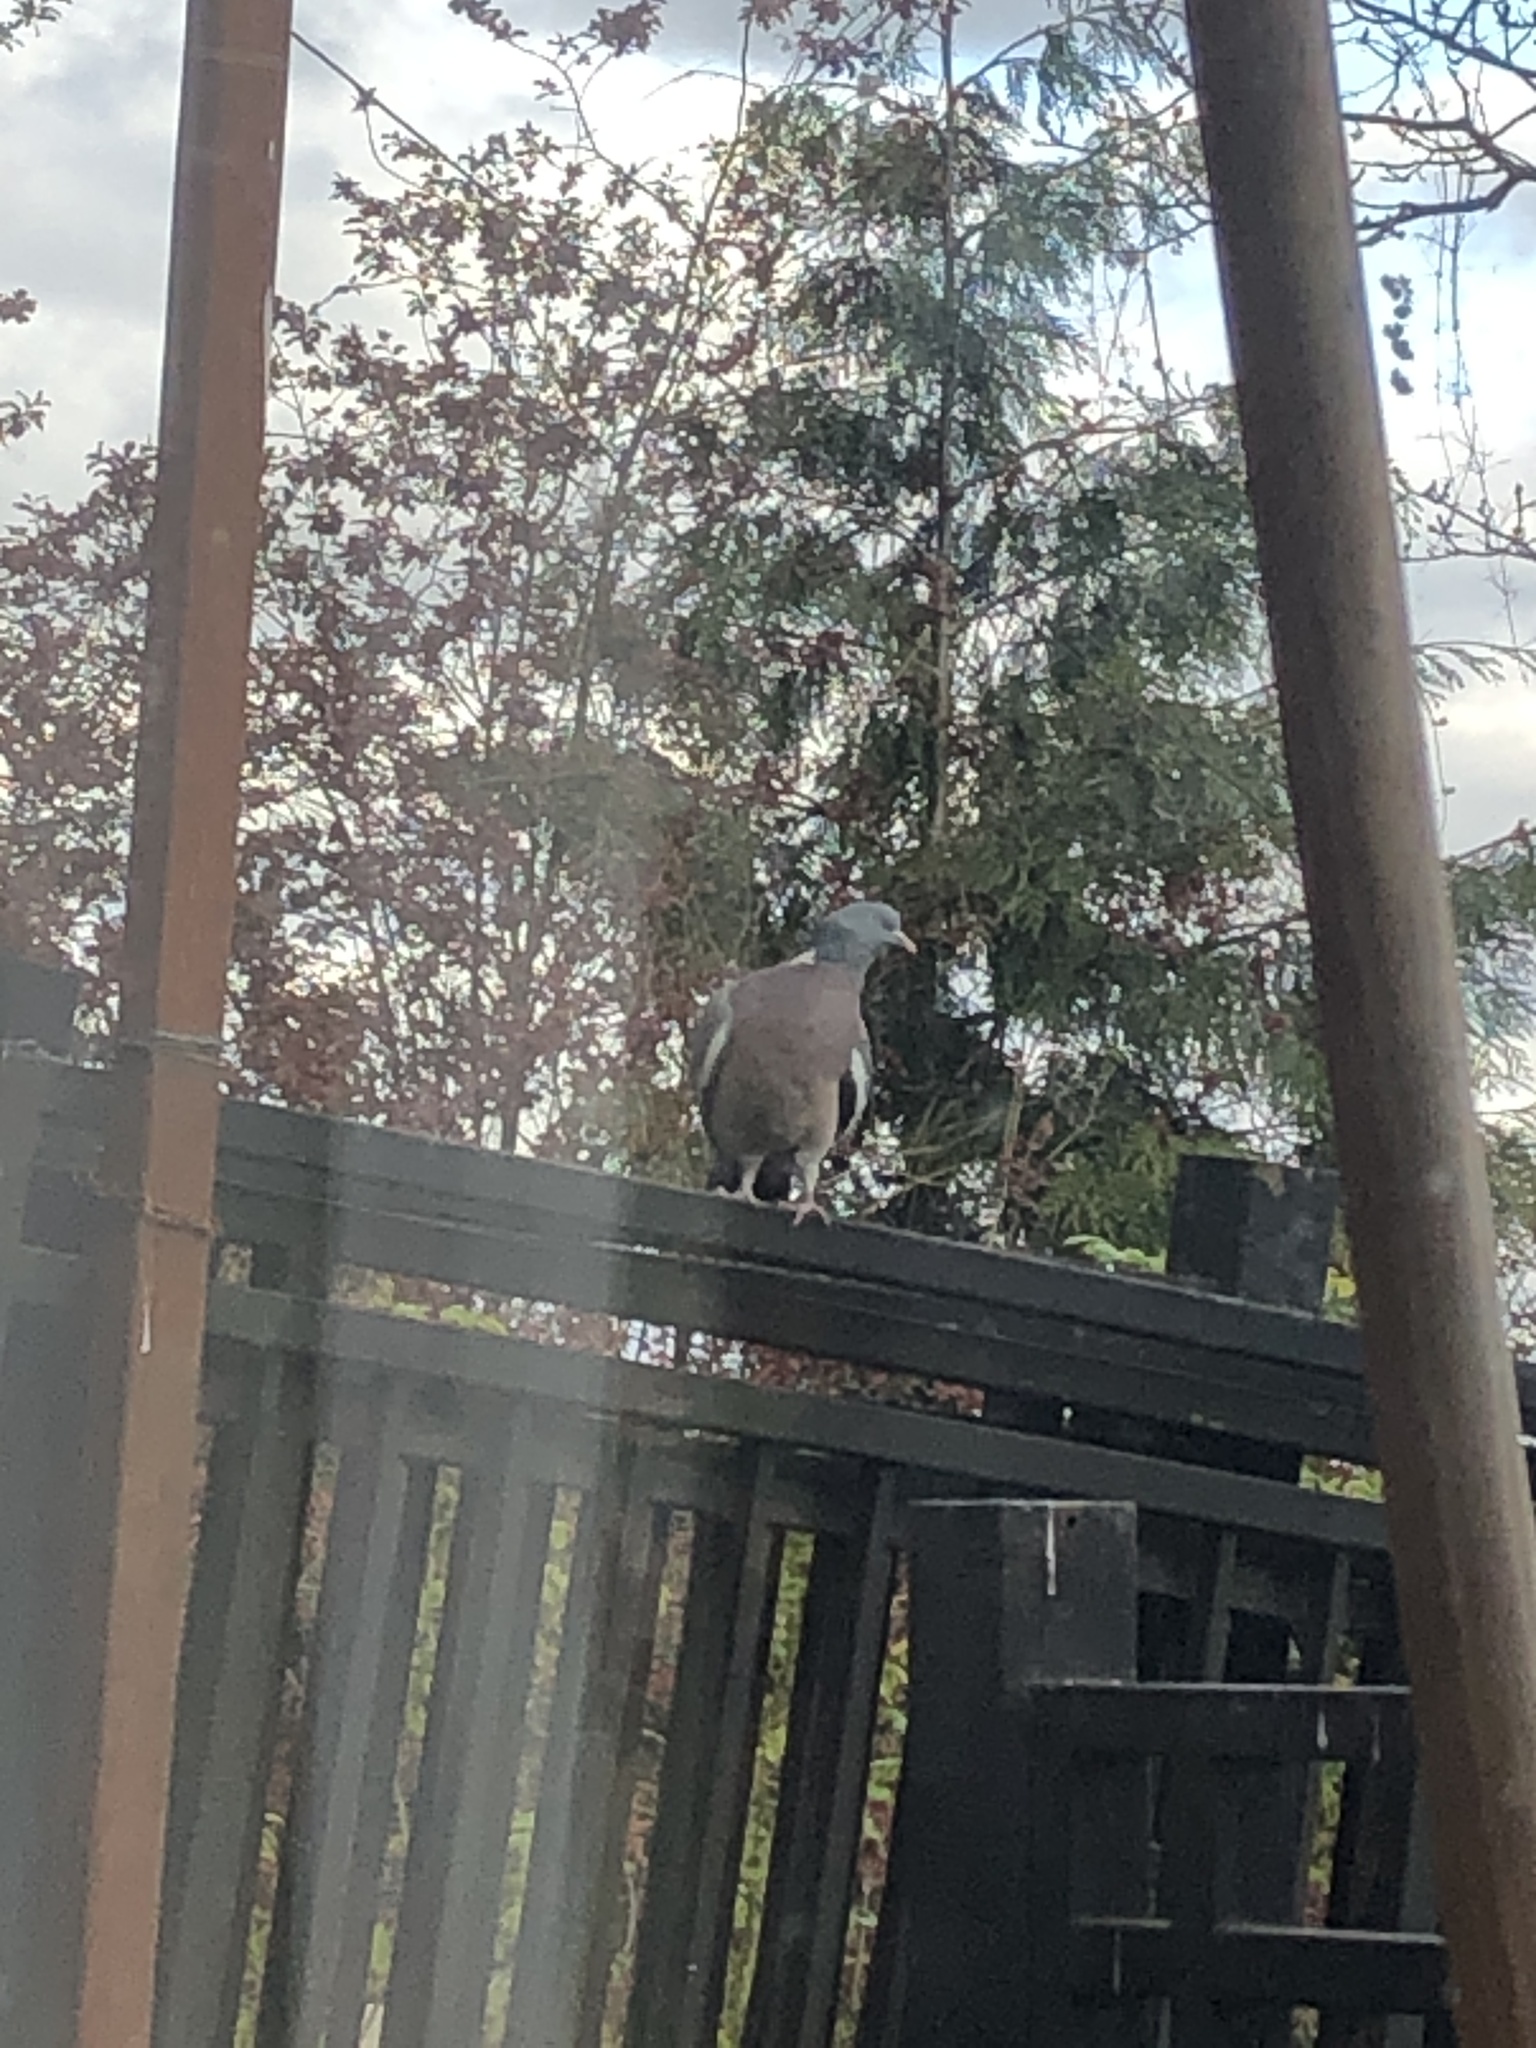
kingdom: Animalia
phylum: Chordata
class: Aves
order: Columbiformes
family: Columbidae
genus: Columba
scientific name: Columba palumbus
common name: Common wood pigeon
